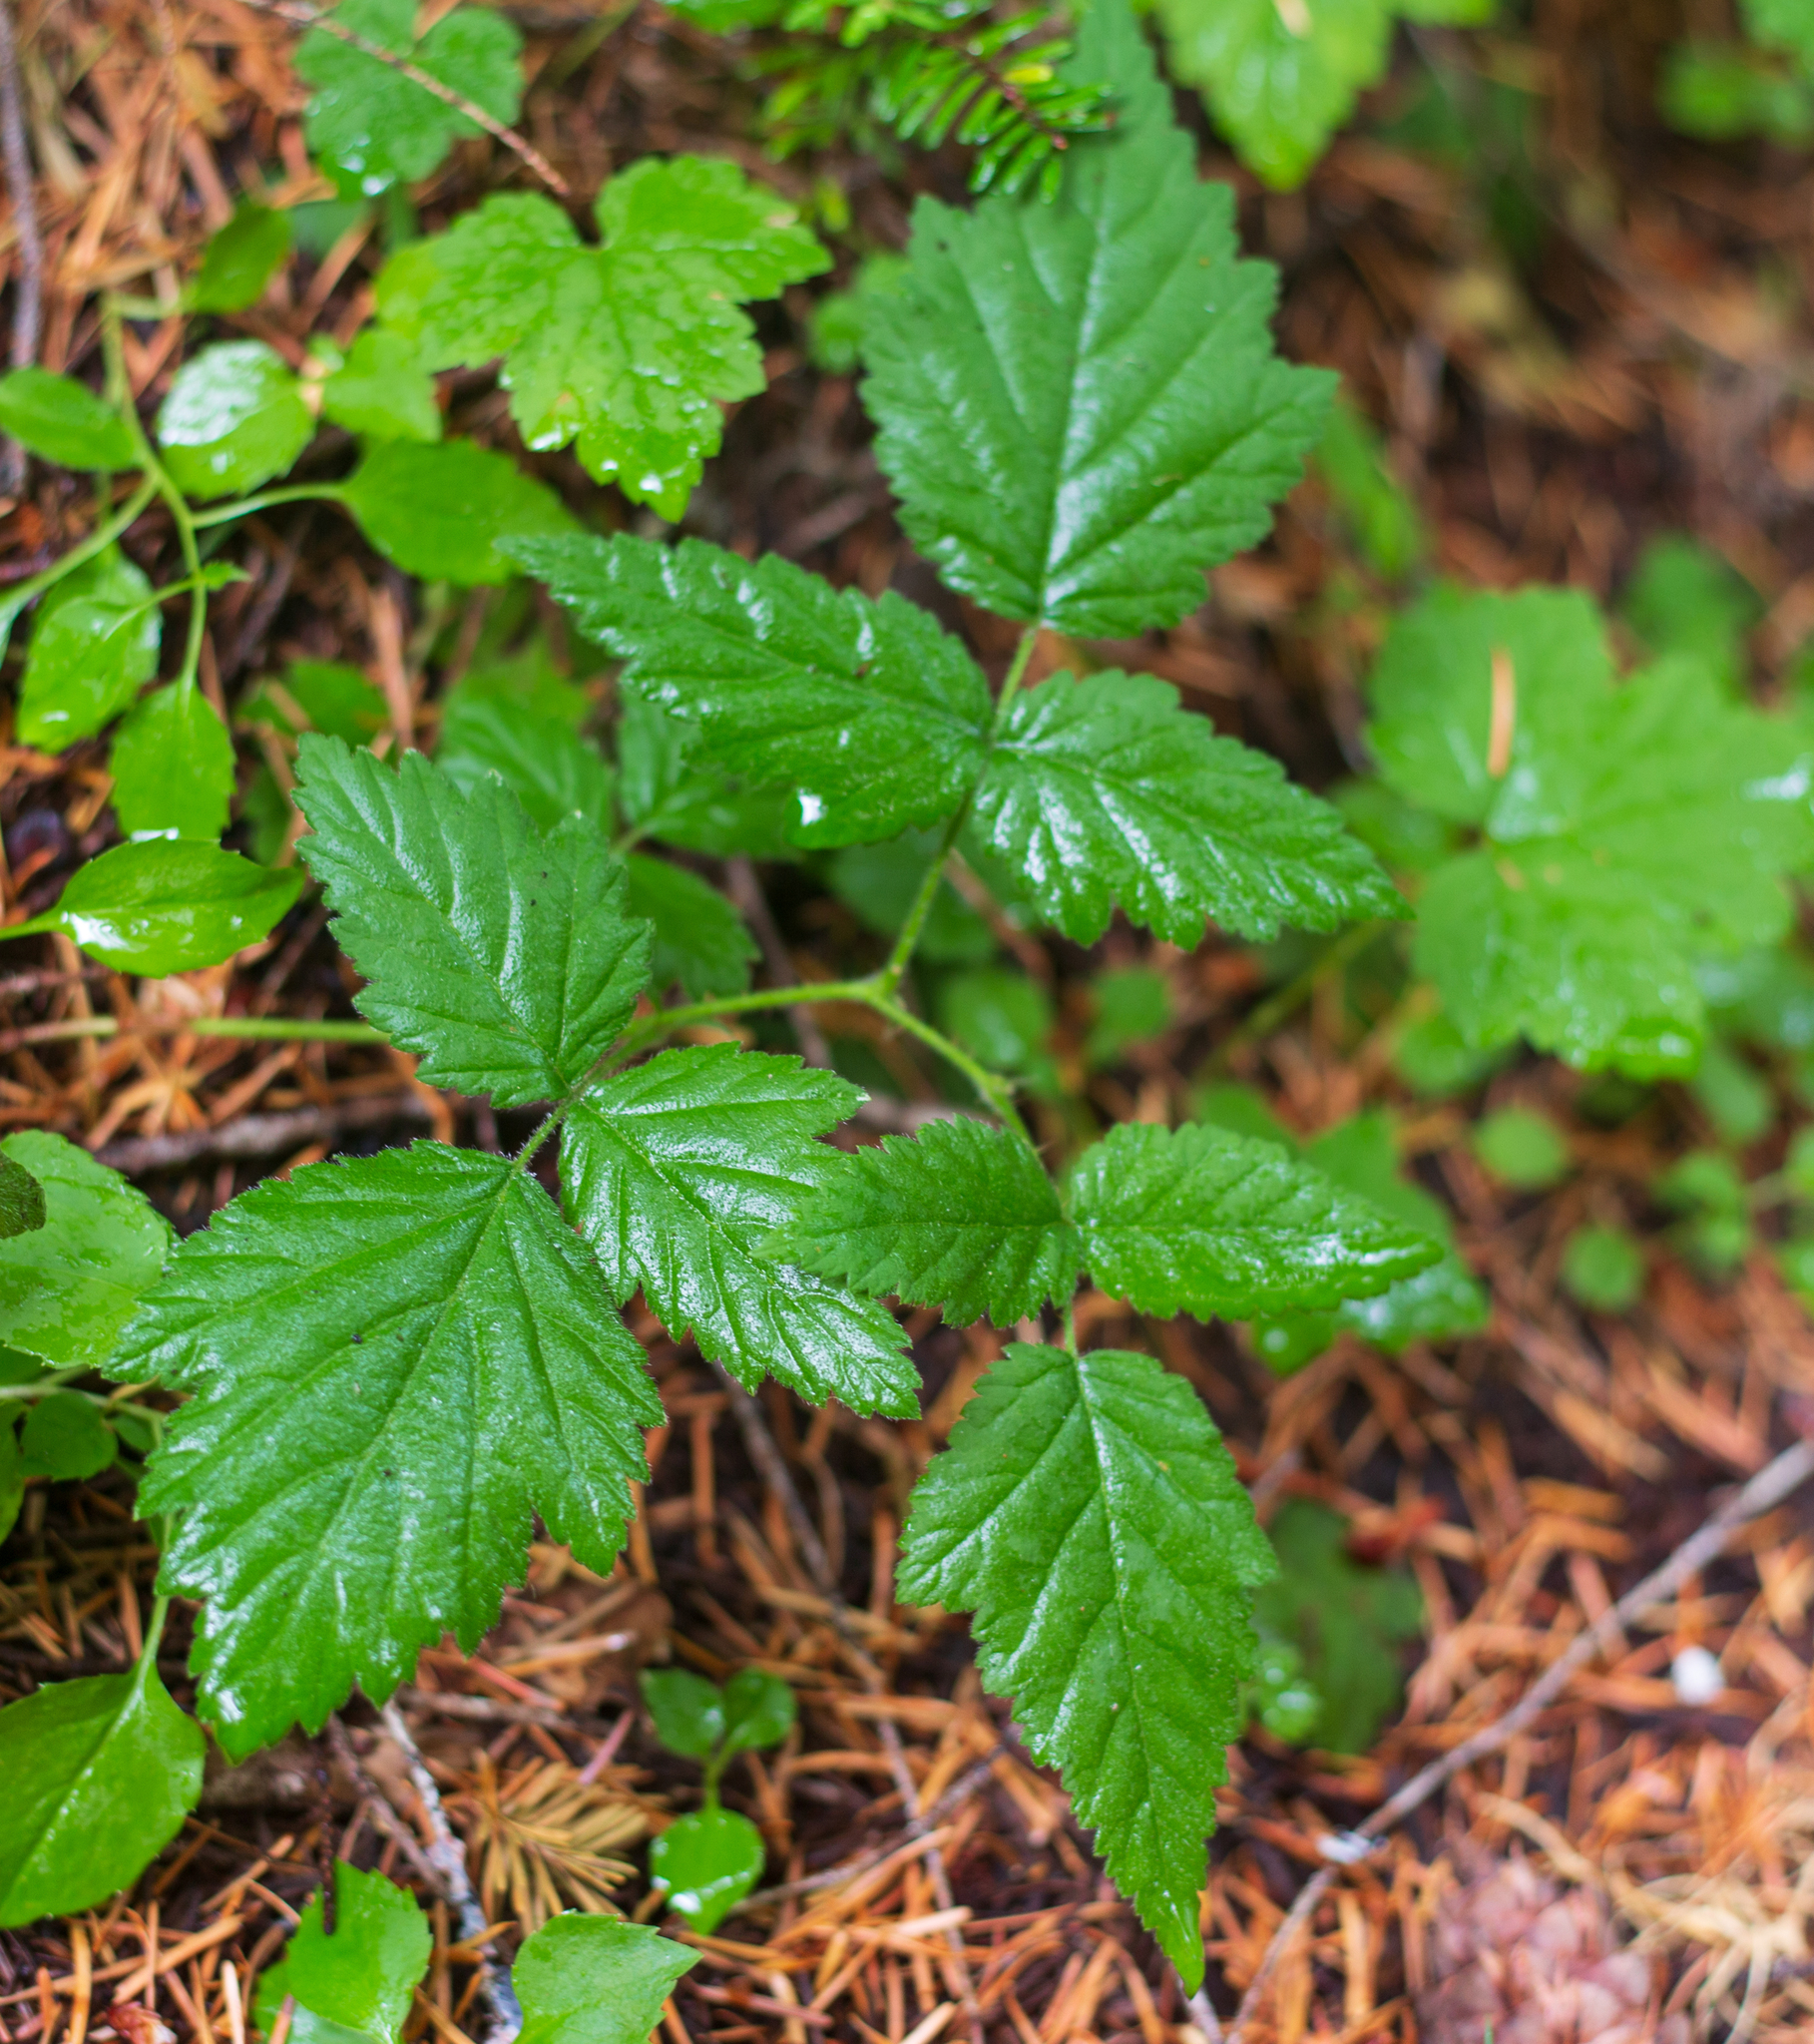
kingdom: Plantae
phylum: Tracheophyta
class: Magnoliopsida
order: Rosales
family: Rosaceae
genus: Rubus
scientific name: Rubus ursinus
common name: Pacific blackberry
